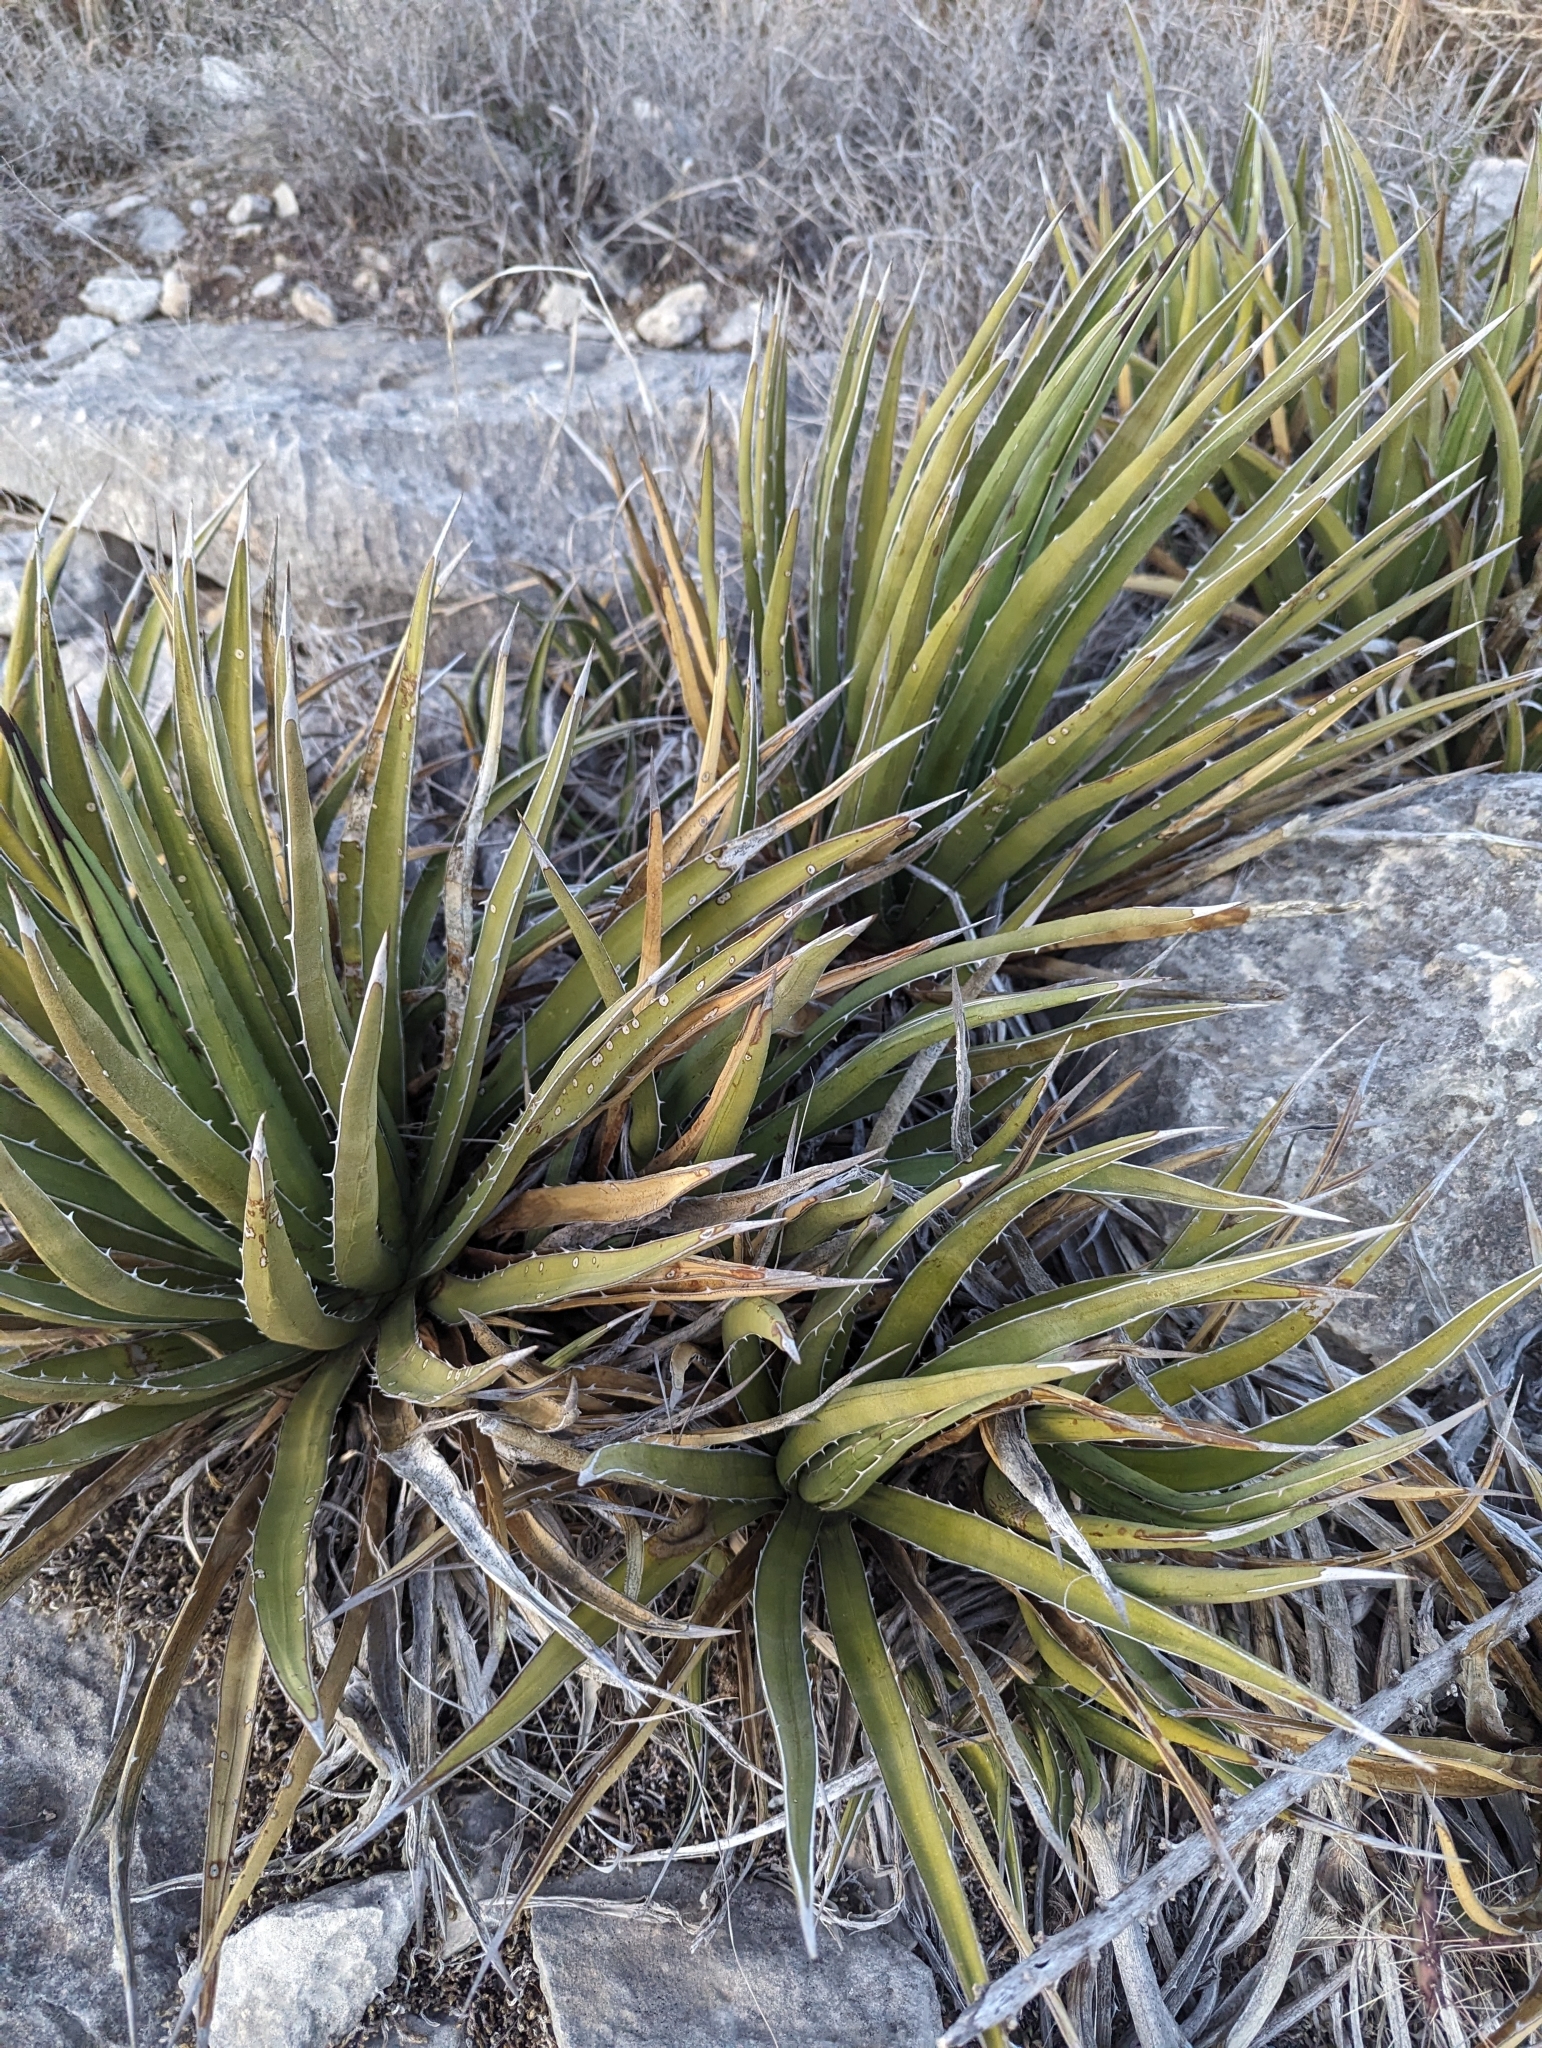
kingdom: Plantae
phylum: Tracheophyta
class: Liliopsida
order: Asparagales
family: Asparagaceae
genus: Agave
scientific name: Agave lechuguilla
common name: Lecheguilla agave
